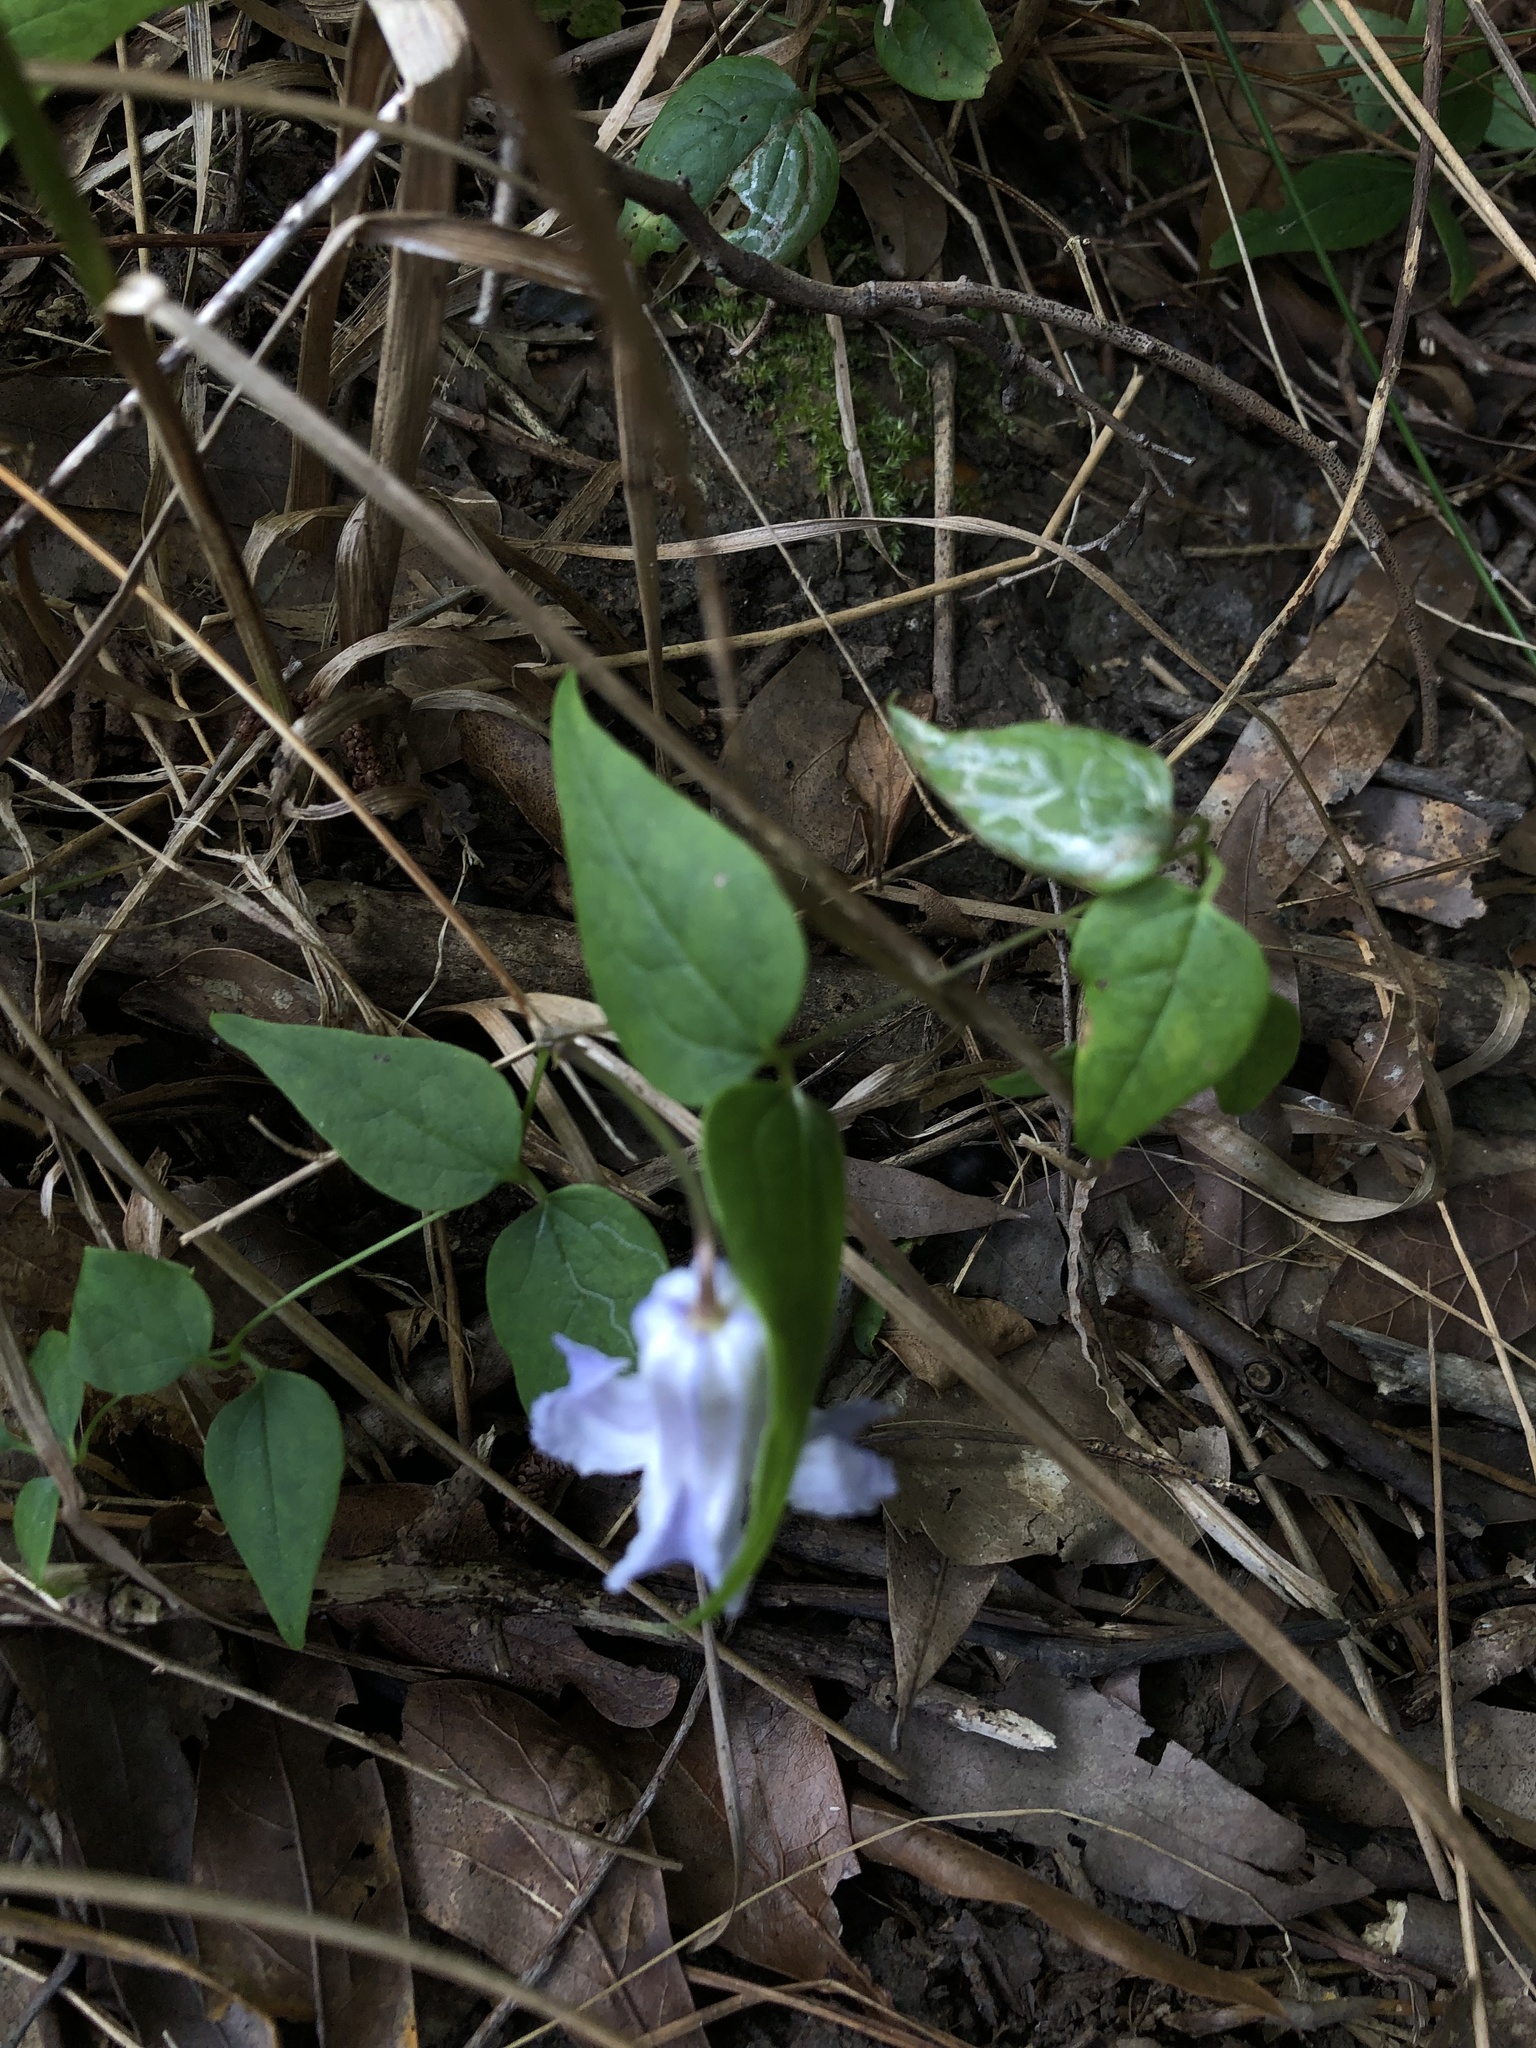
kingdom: Plantae
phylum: Tracheophyta
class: Magnoliopsida
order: Ranunculales
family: Ranunculaceae
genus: Clematis
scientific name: Clematis crispa
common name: Curly clematis
